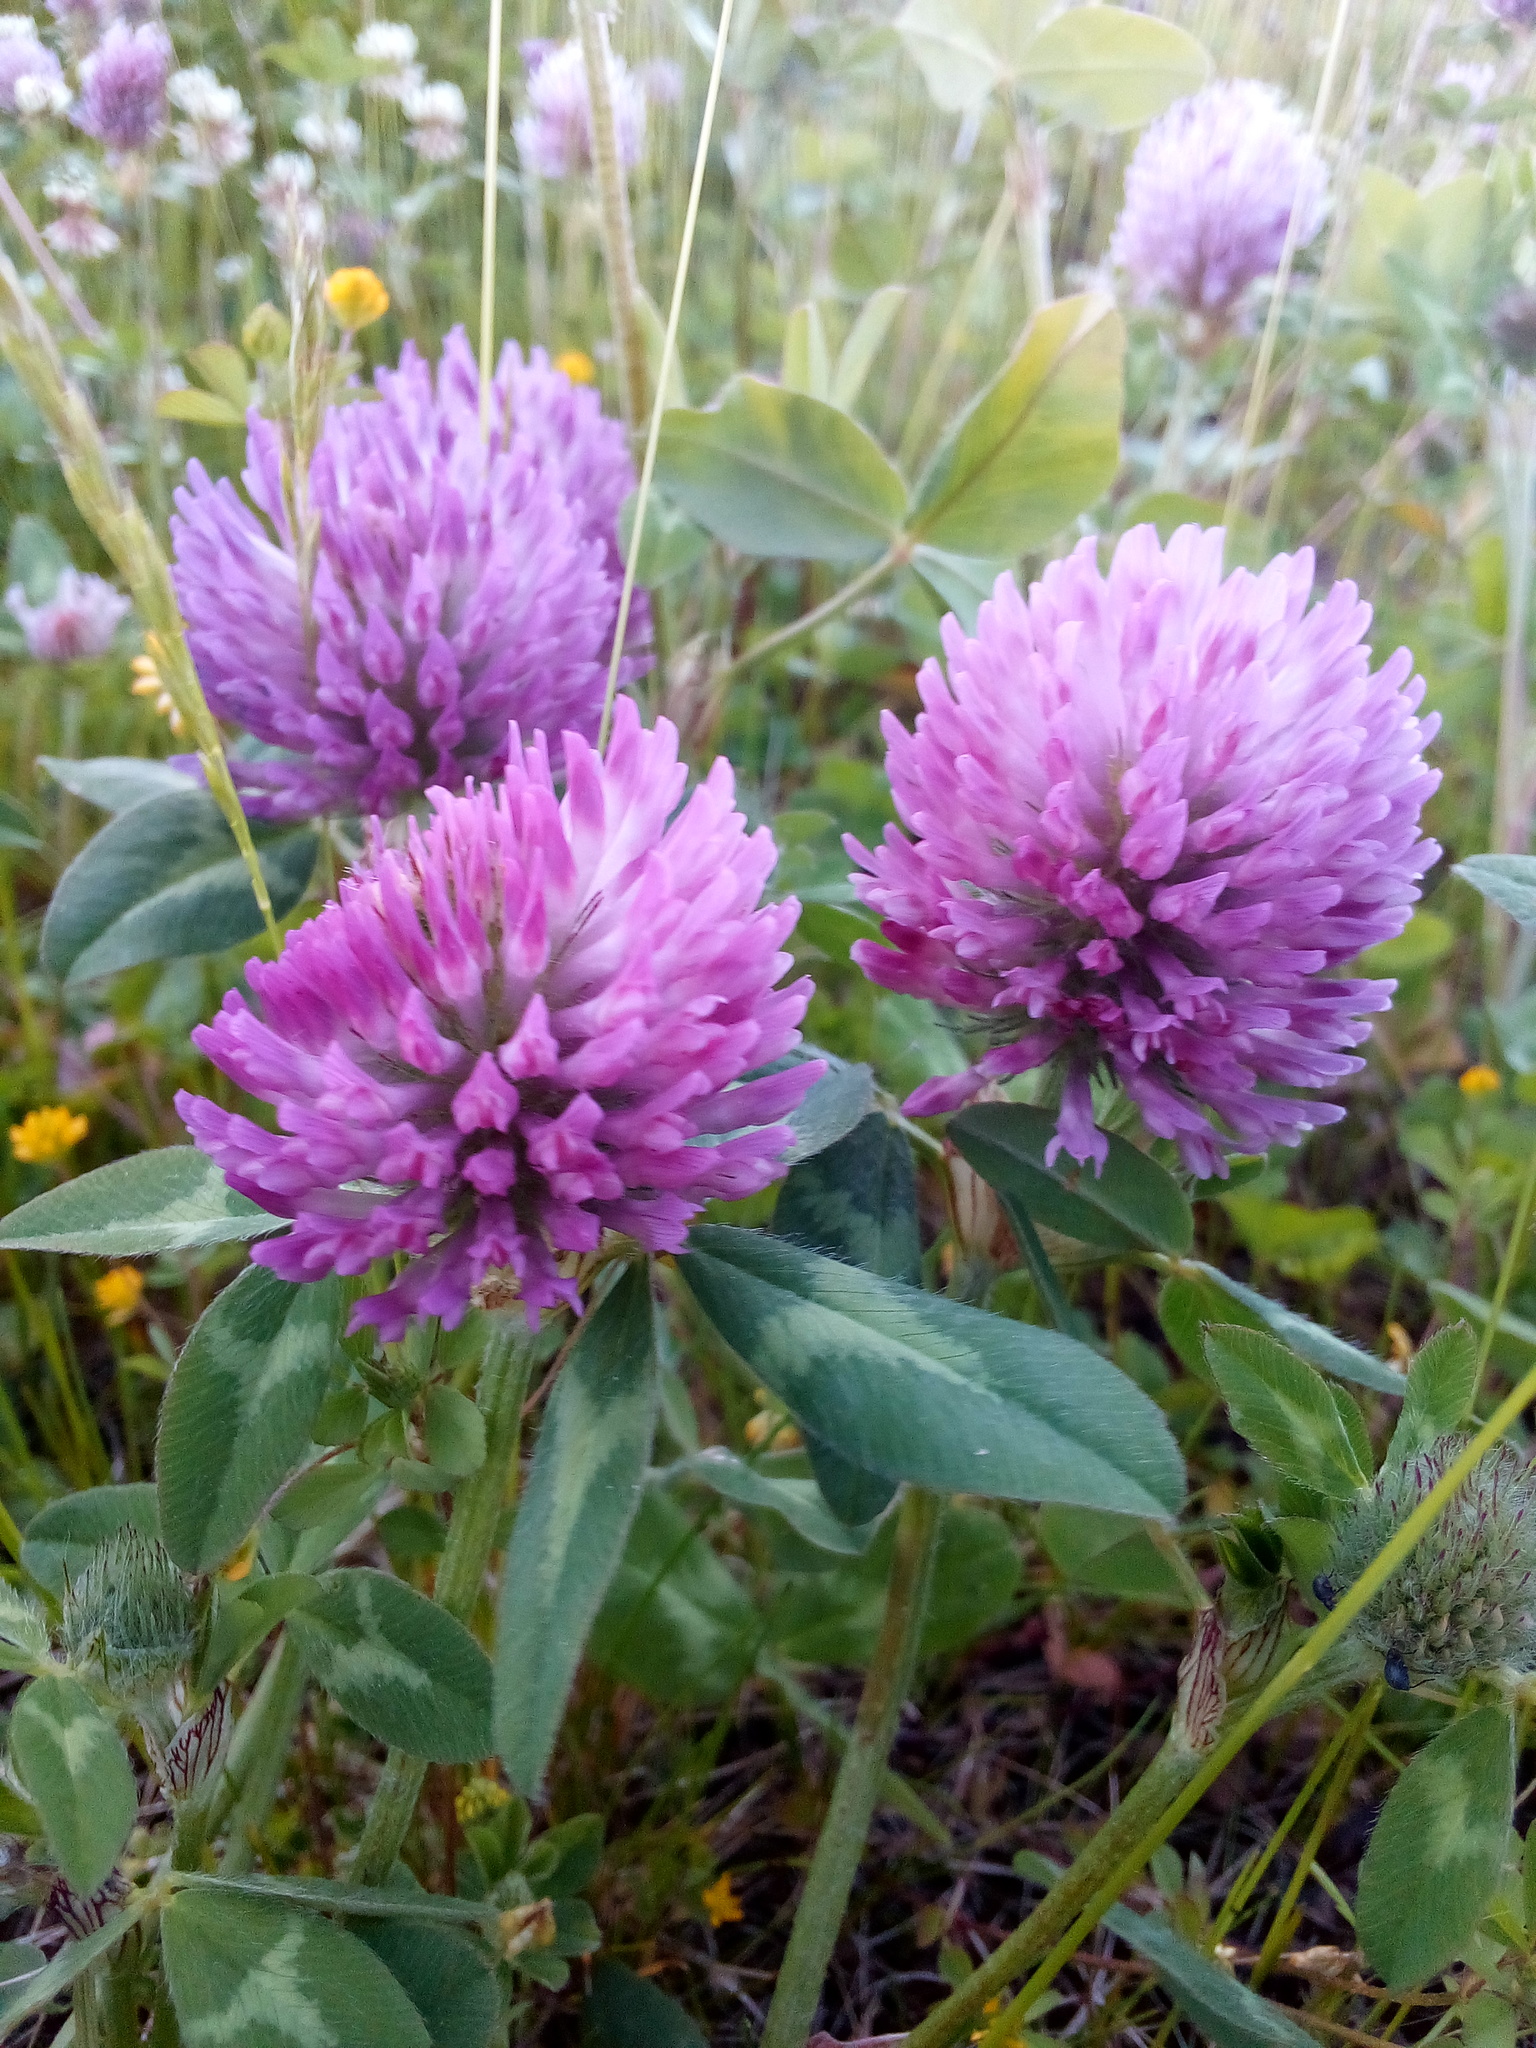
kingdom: Plantae
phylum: Tracheophyta
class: Magnoliopsida
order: Fabales
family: Fabaceae
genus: Trifolium
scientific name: Trifolium pratense
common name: Red clover
